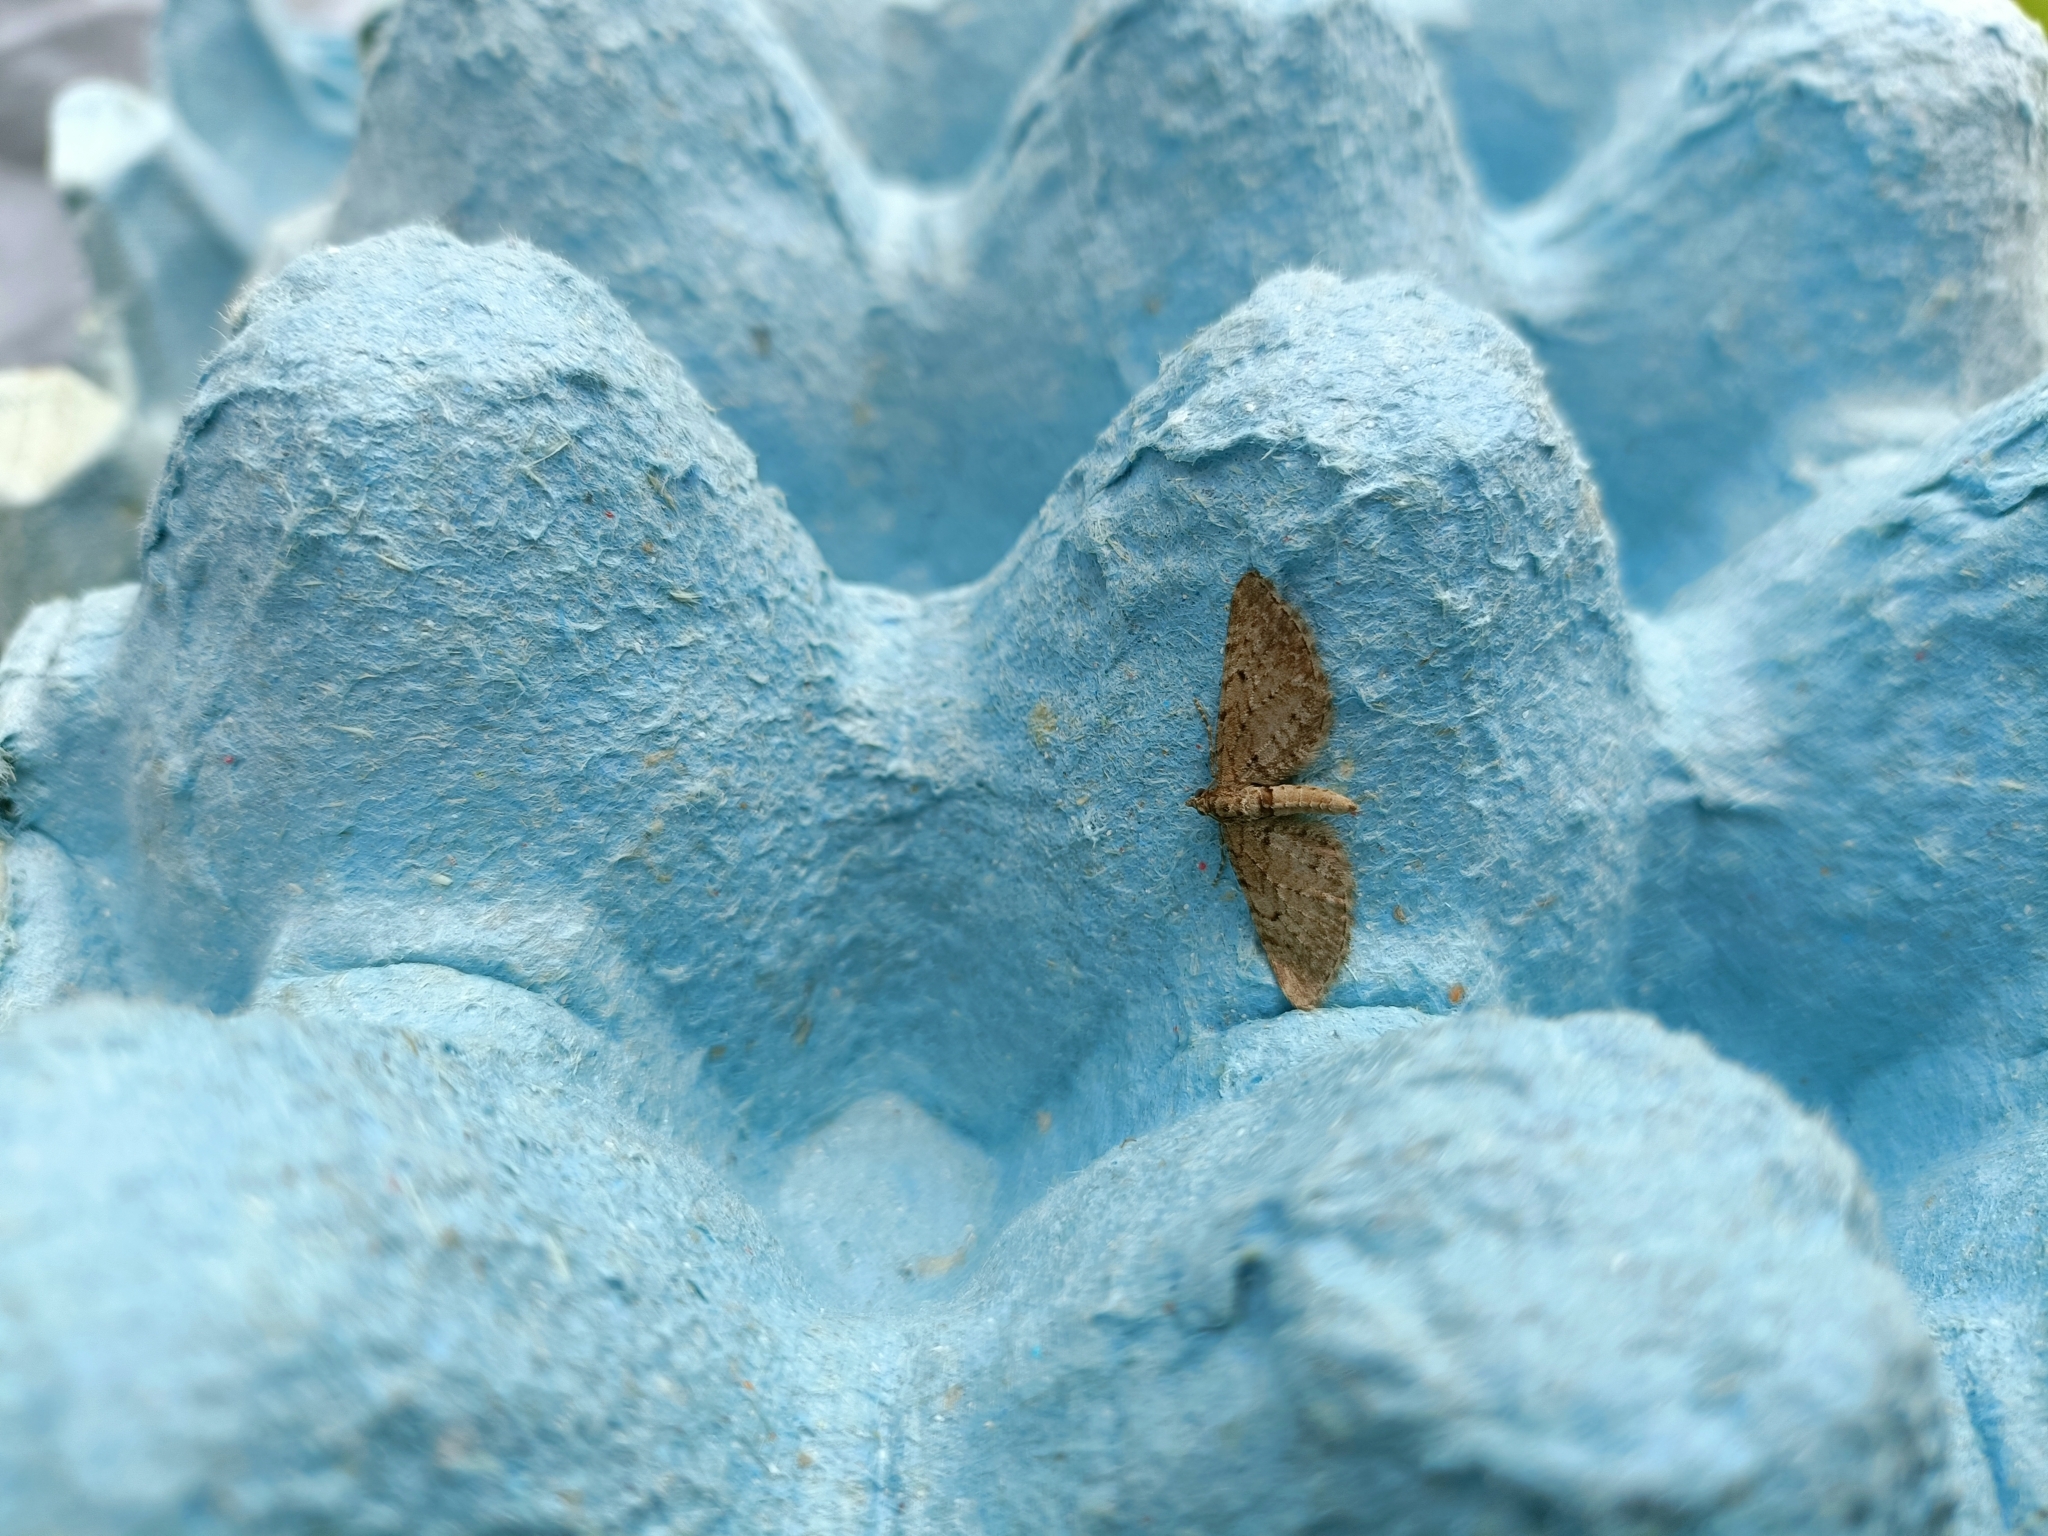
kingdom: Animalia
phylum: Arthropoda
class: Insecta
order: Lepidoptera
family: Geometridae
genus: Eupithecia
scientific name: Eupithecia intricata
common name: Freyers pug
